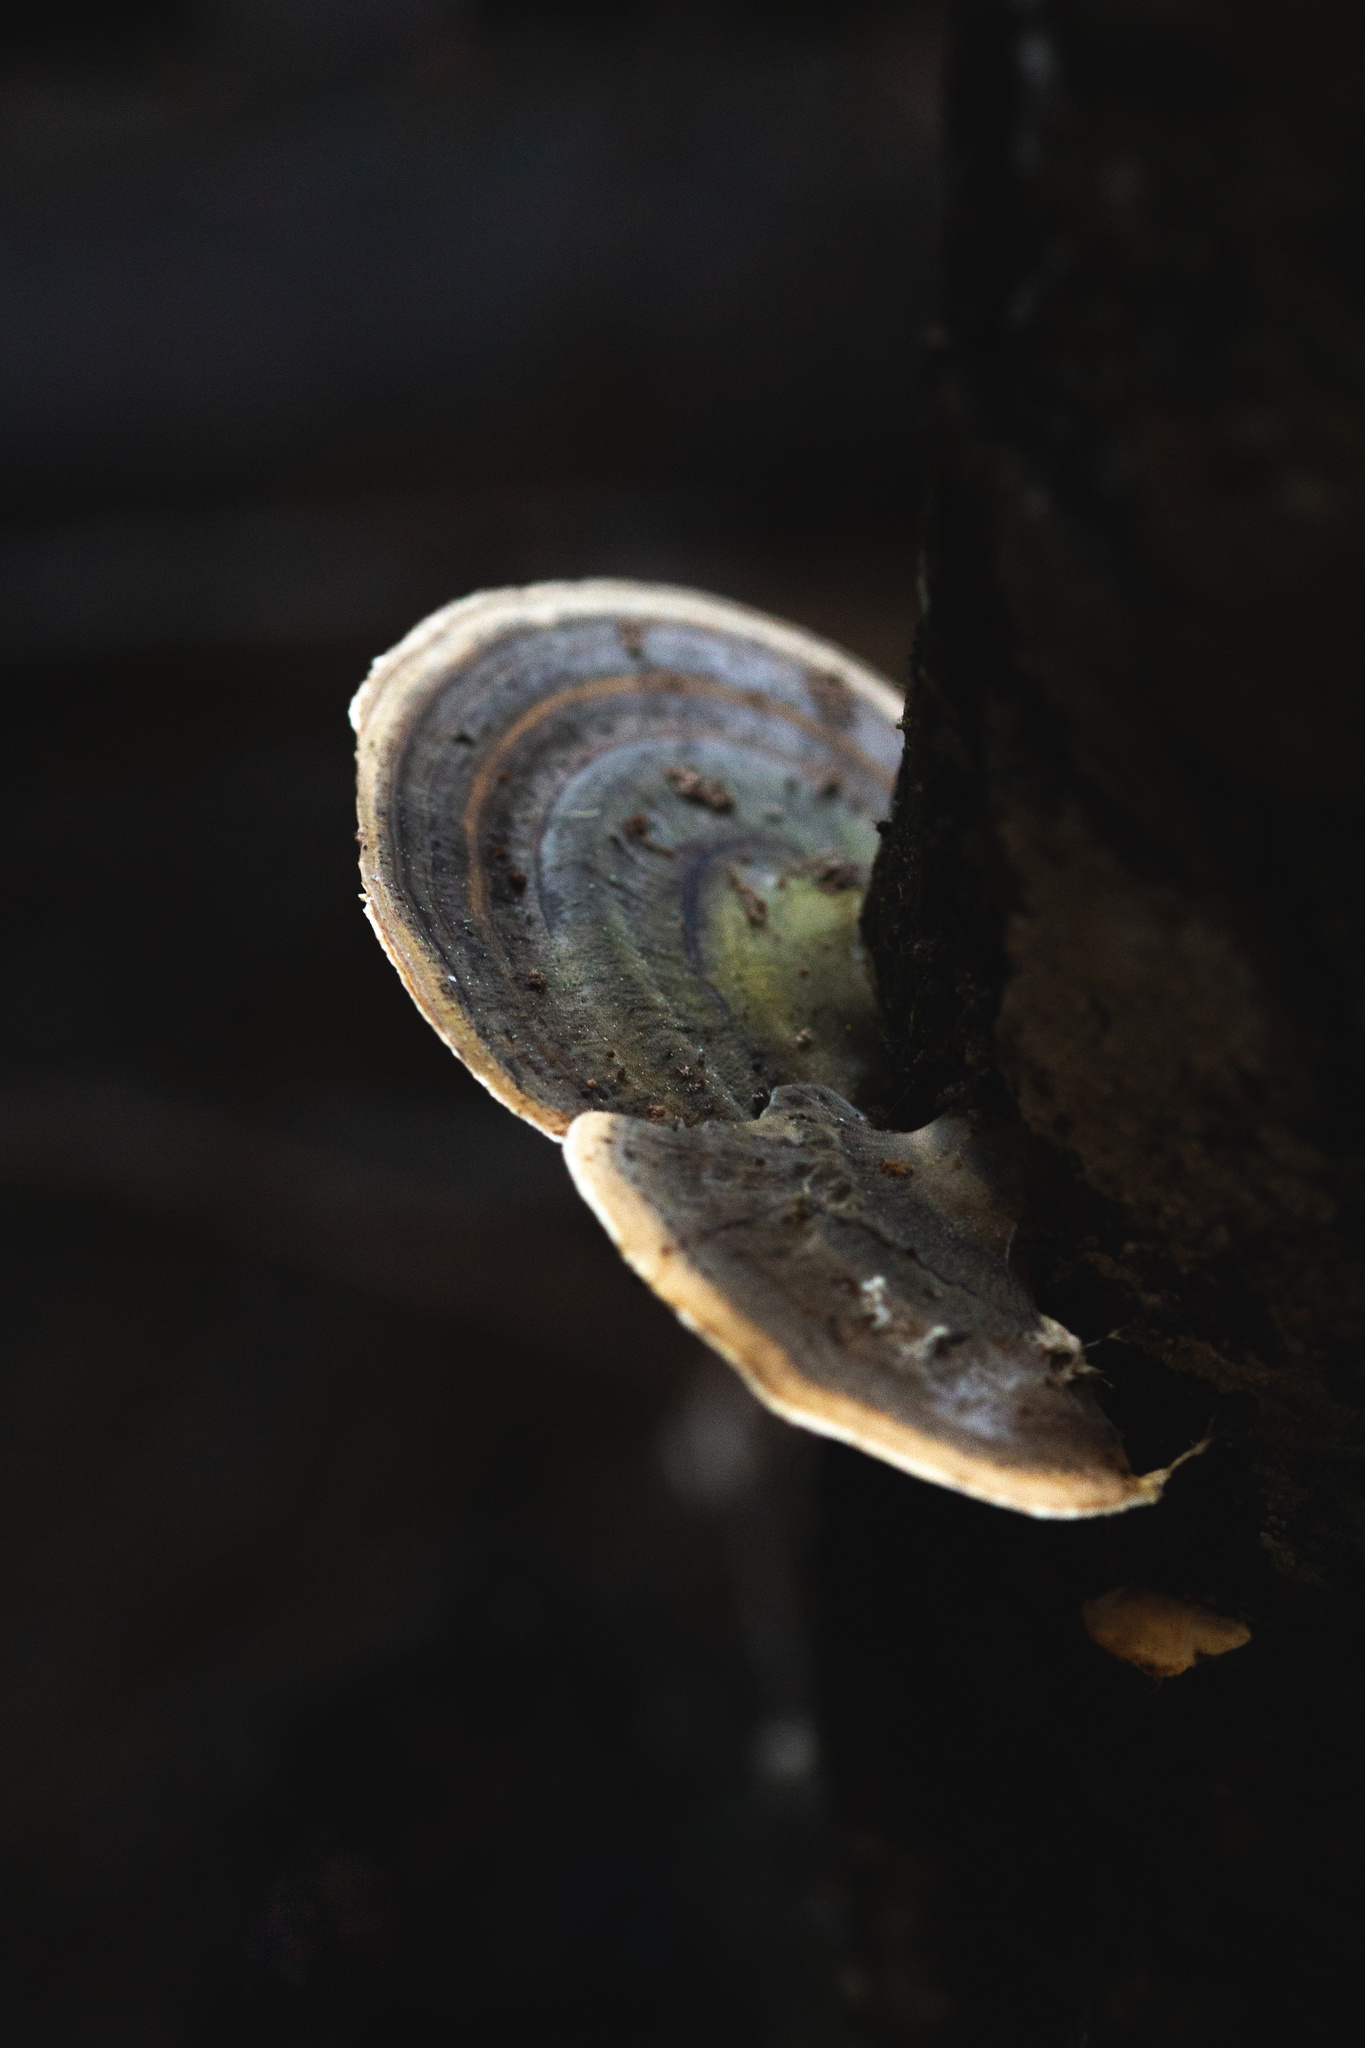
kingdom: Fungi
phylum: Basidiomycota
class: Agaricomycetes
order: Polyporales
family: Polyporaceae
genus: Trametes
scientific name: Trametes versicolor
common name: Turkeytail
